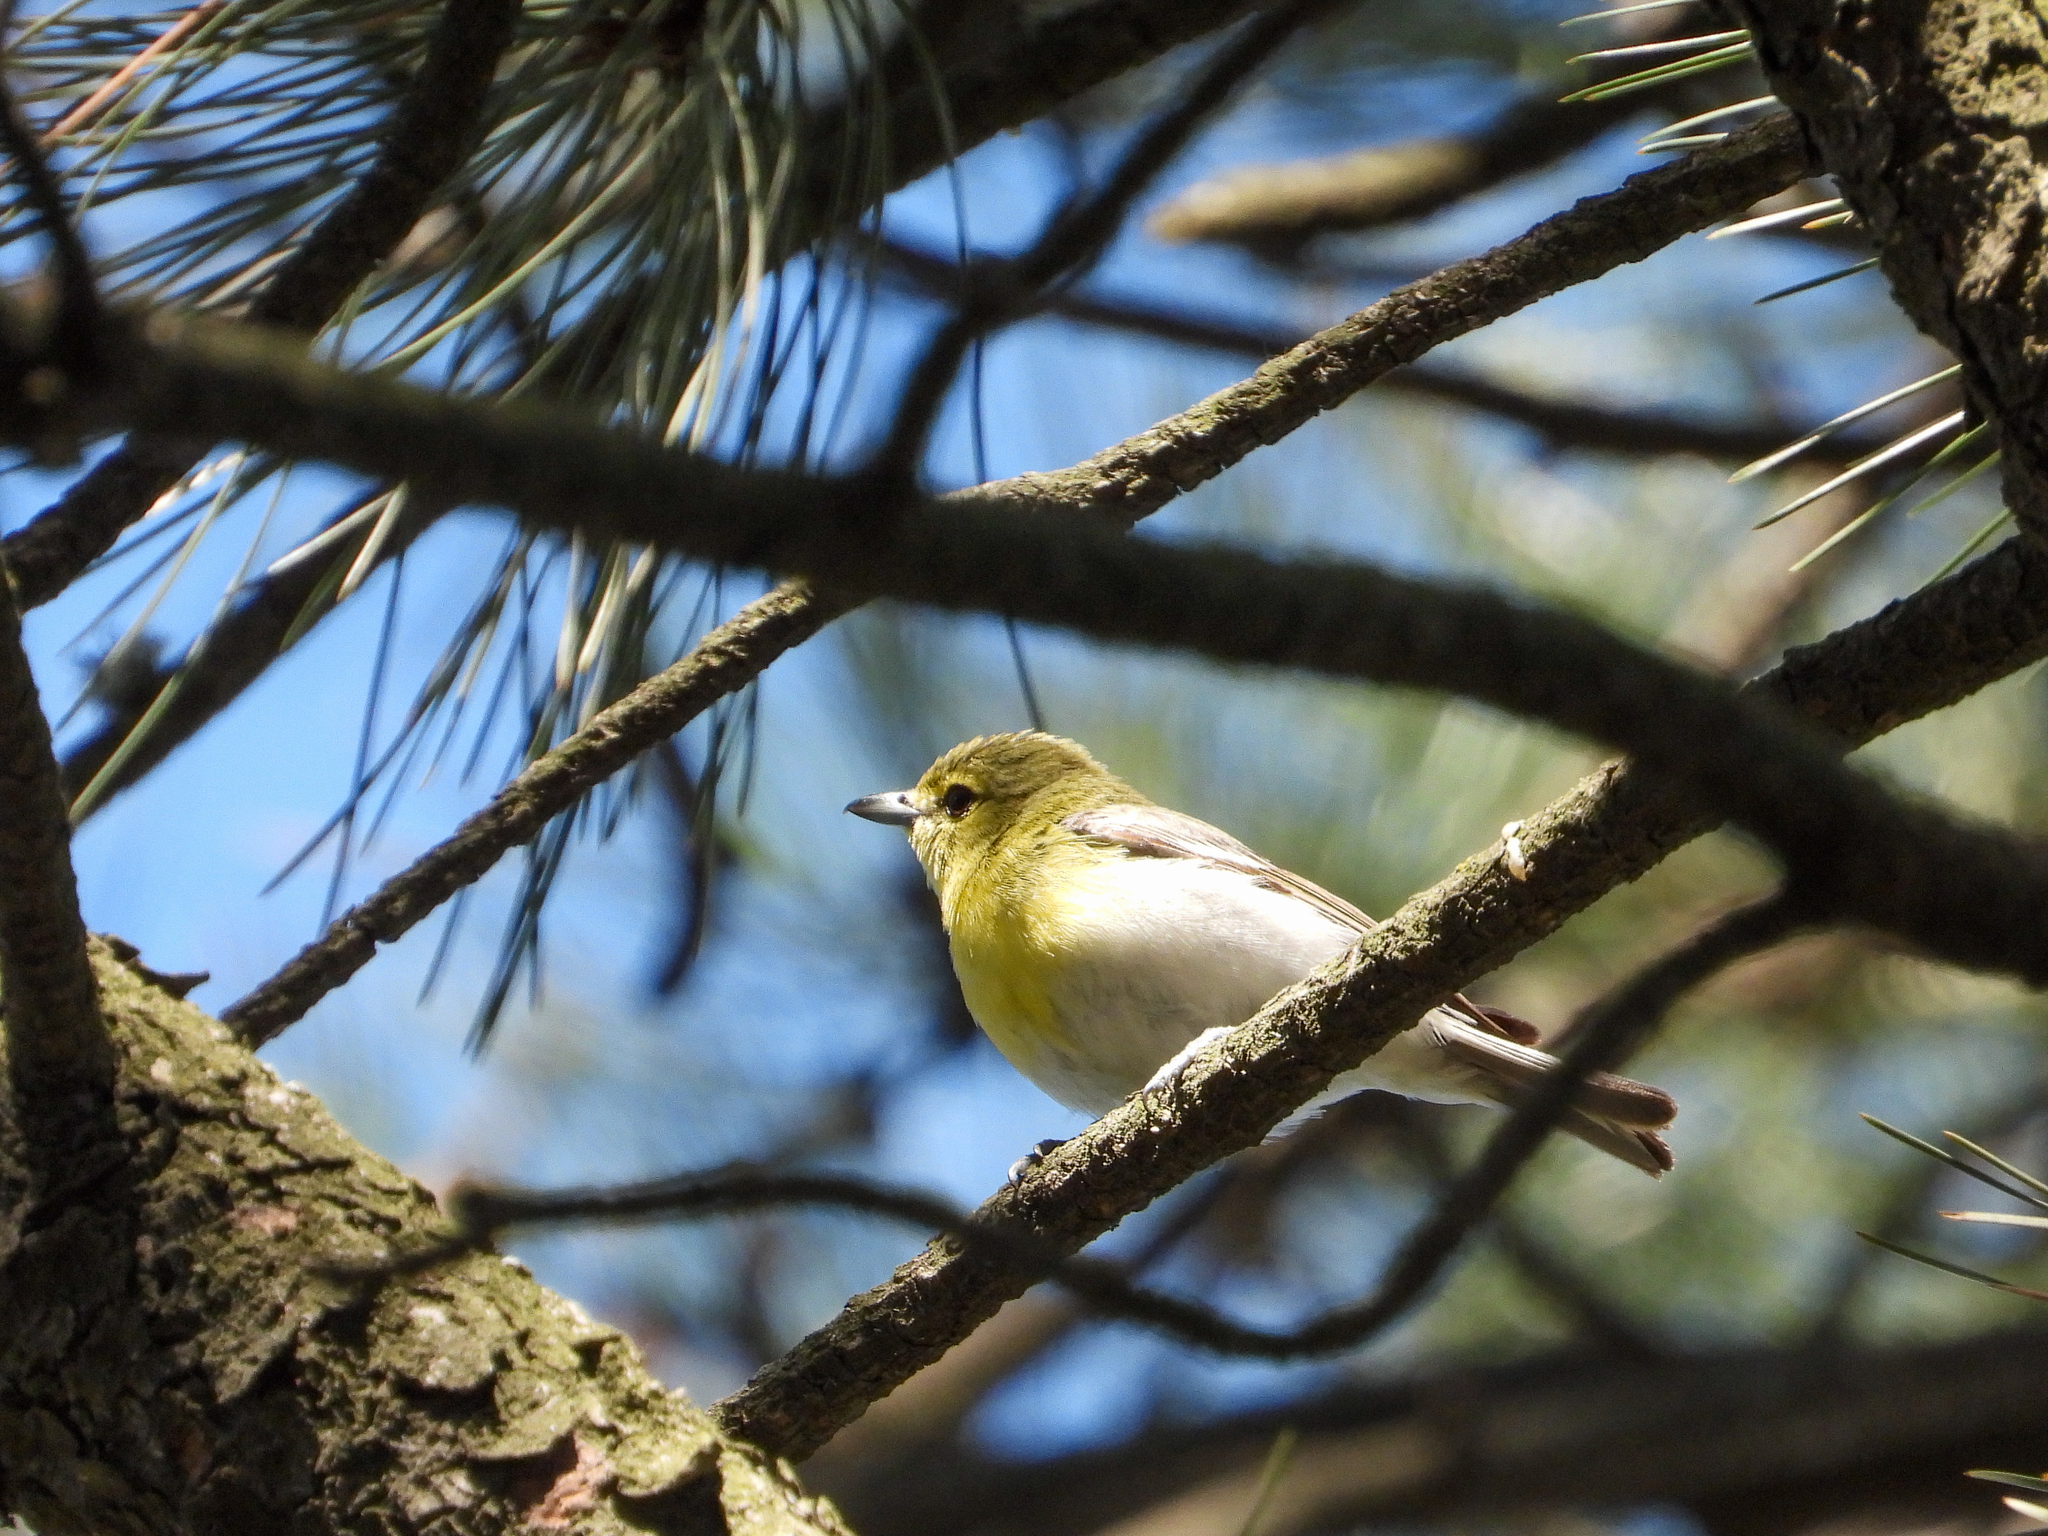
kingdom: Animalia
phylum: Chordata
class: Aves
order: Passeriformes
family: Vireonidae
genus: Vireo
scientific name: Vireo flavifrons
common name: Yellow-throated vireo
